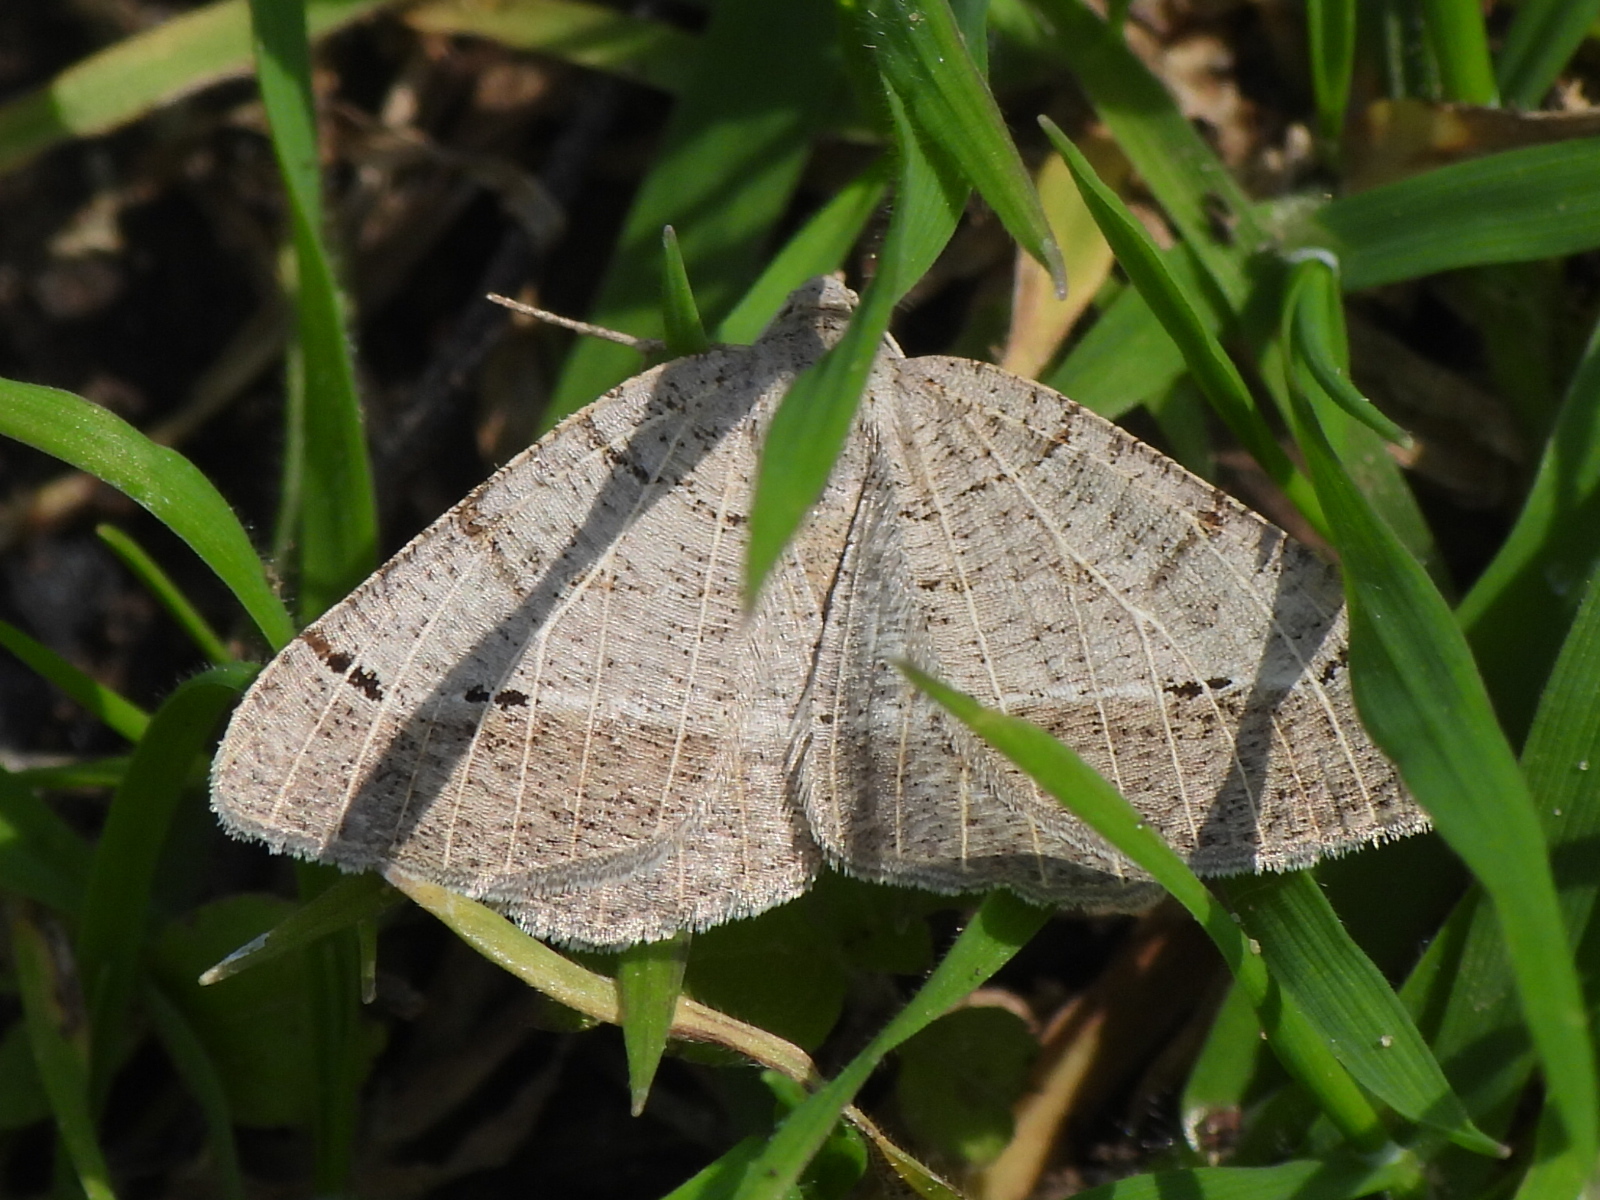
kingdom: Animalia
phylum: Arthropoda
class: Insecta
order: Lepidoptera
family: Geometridae
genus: Isturgia
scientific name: Isturgia dislocaria
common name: Pale-viened enconista
